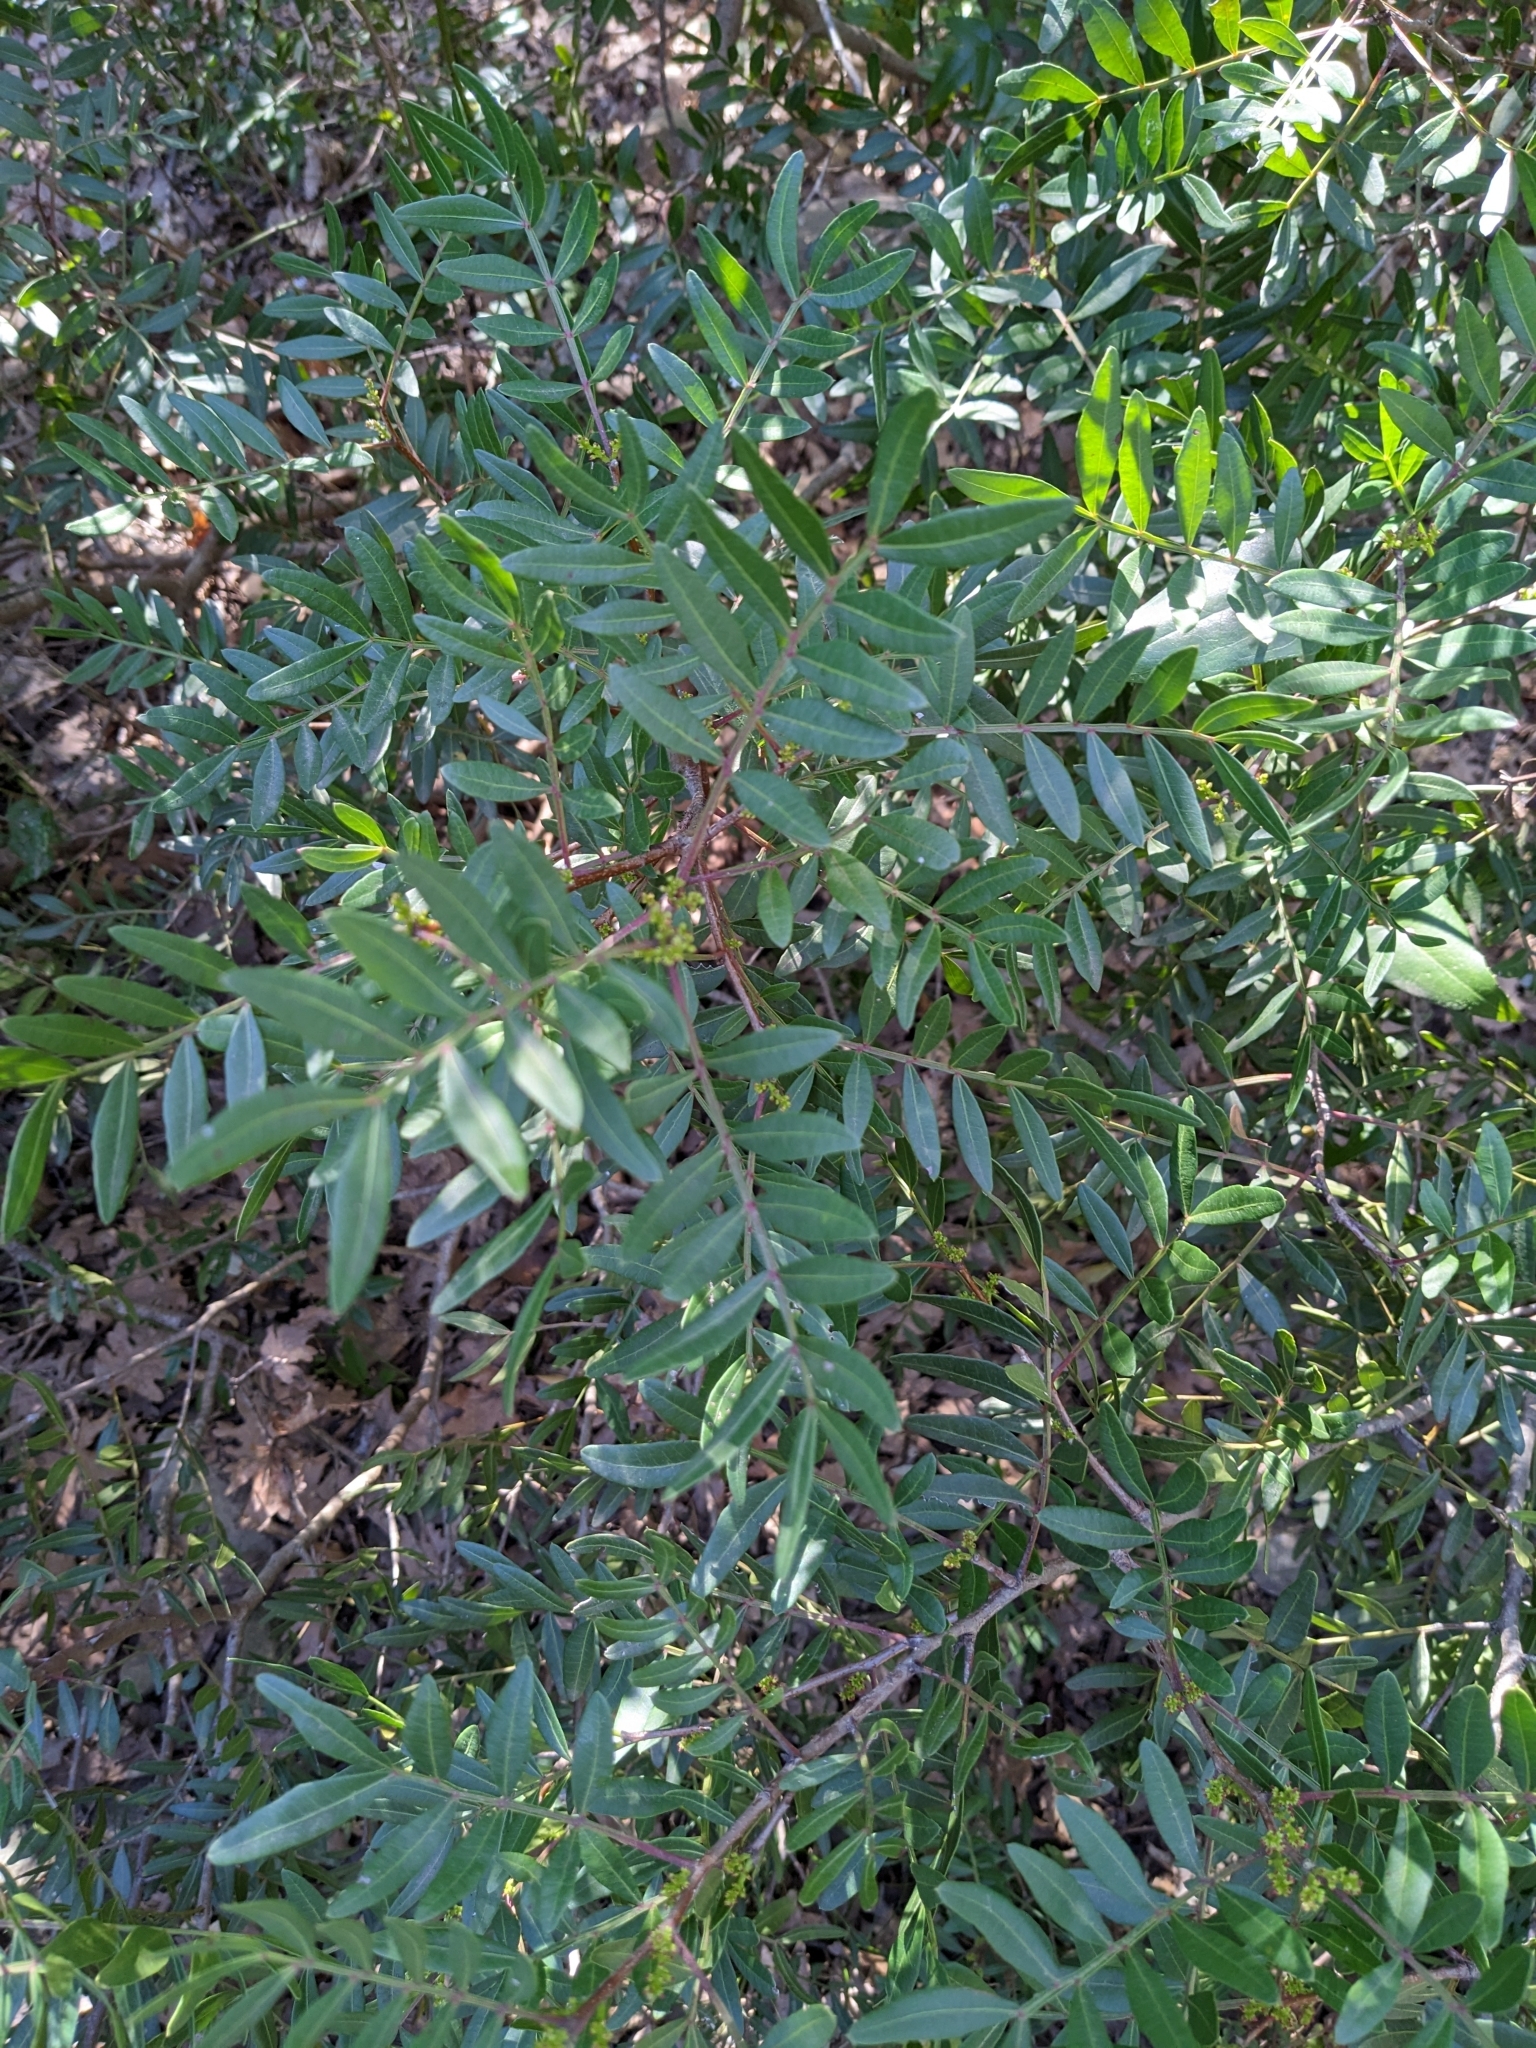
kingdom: Plantae
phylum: Tracheophyta
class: Magnoliopsida
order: Sapindales
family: Anacardiaceae
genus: Pistacia
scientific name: Pistacia lentiscus
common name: Lentisk
